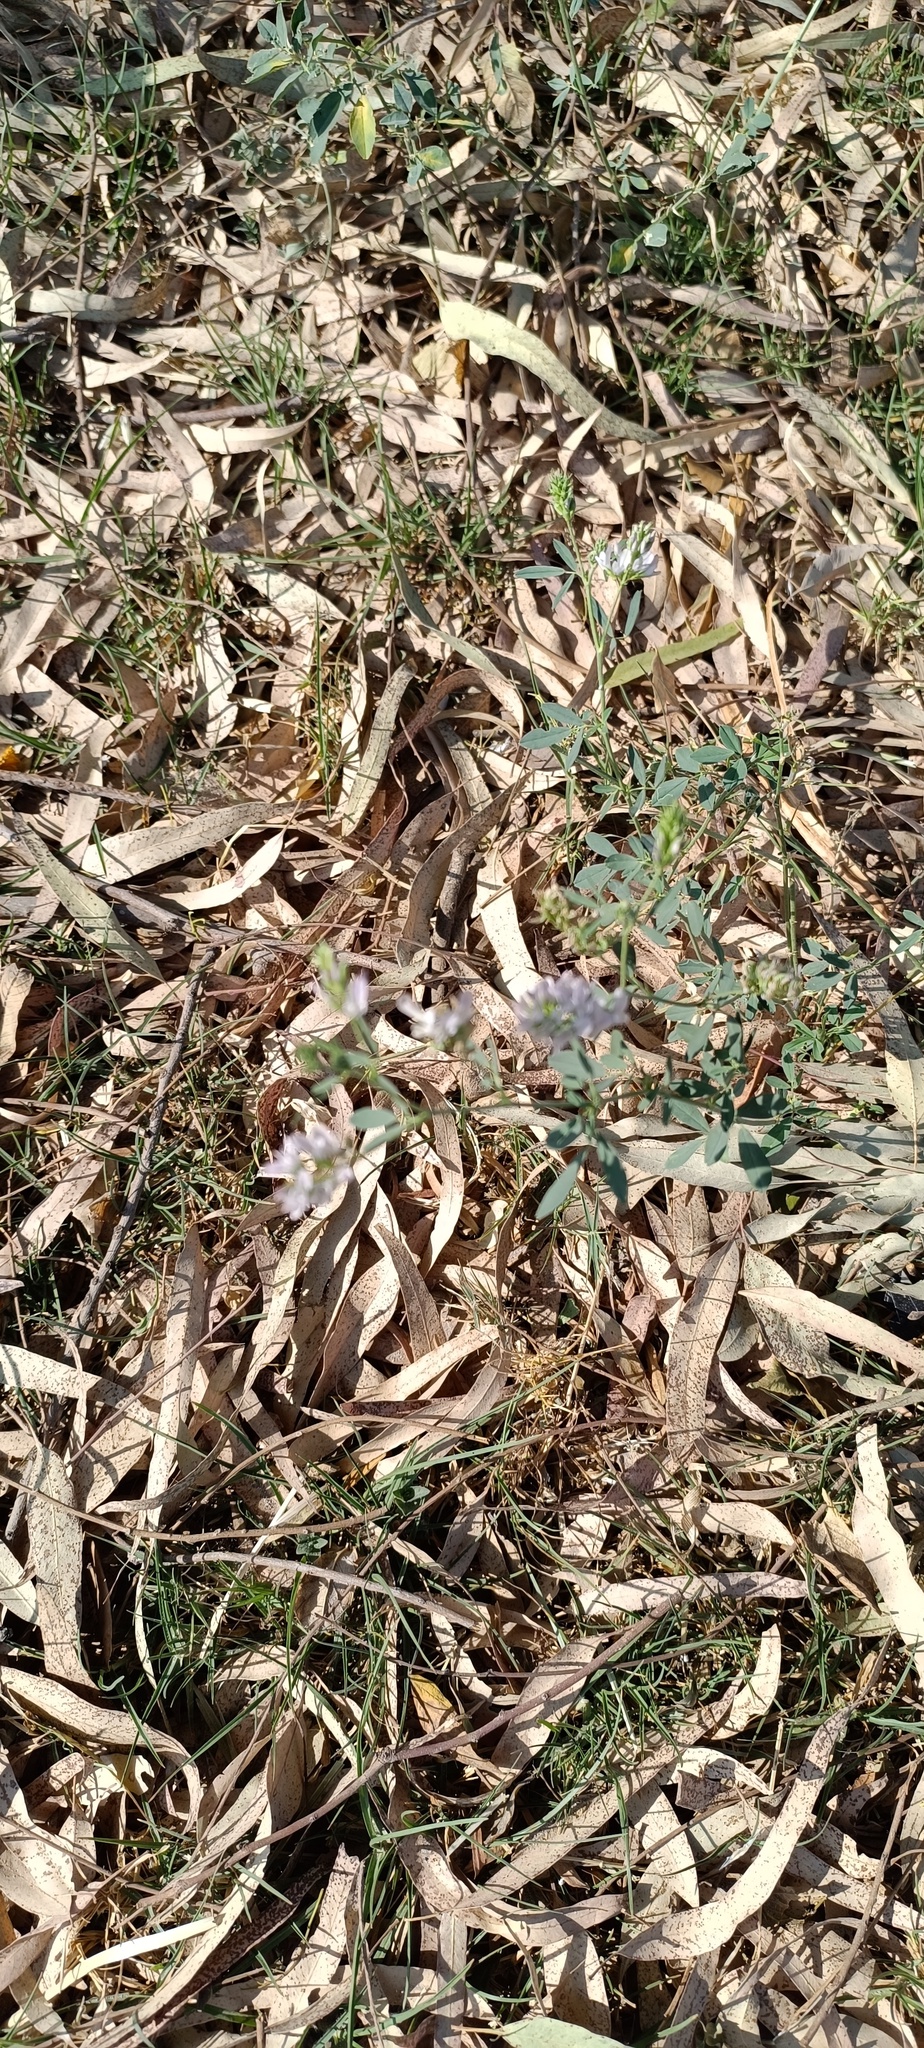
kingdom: Plantae
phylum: Tracheophyta
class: Magnoliopsida
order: Fabales
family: Fabaceae
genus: Medicago
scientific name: Medicago sativa
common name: Alfalfa
